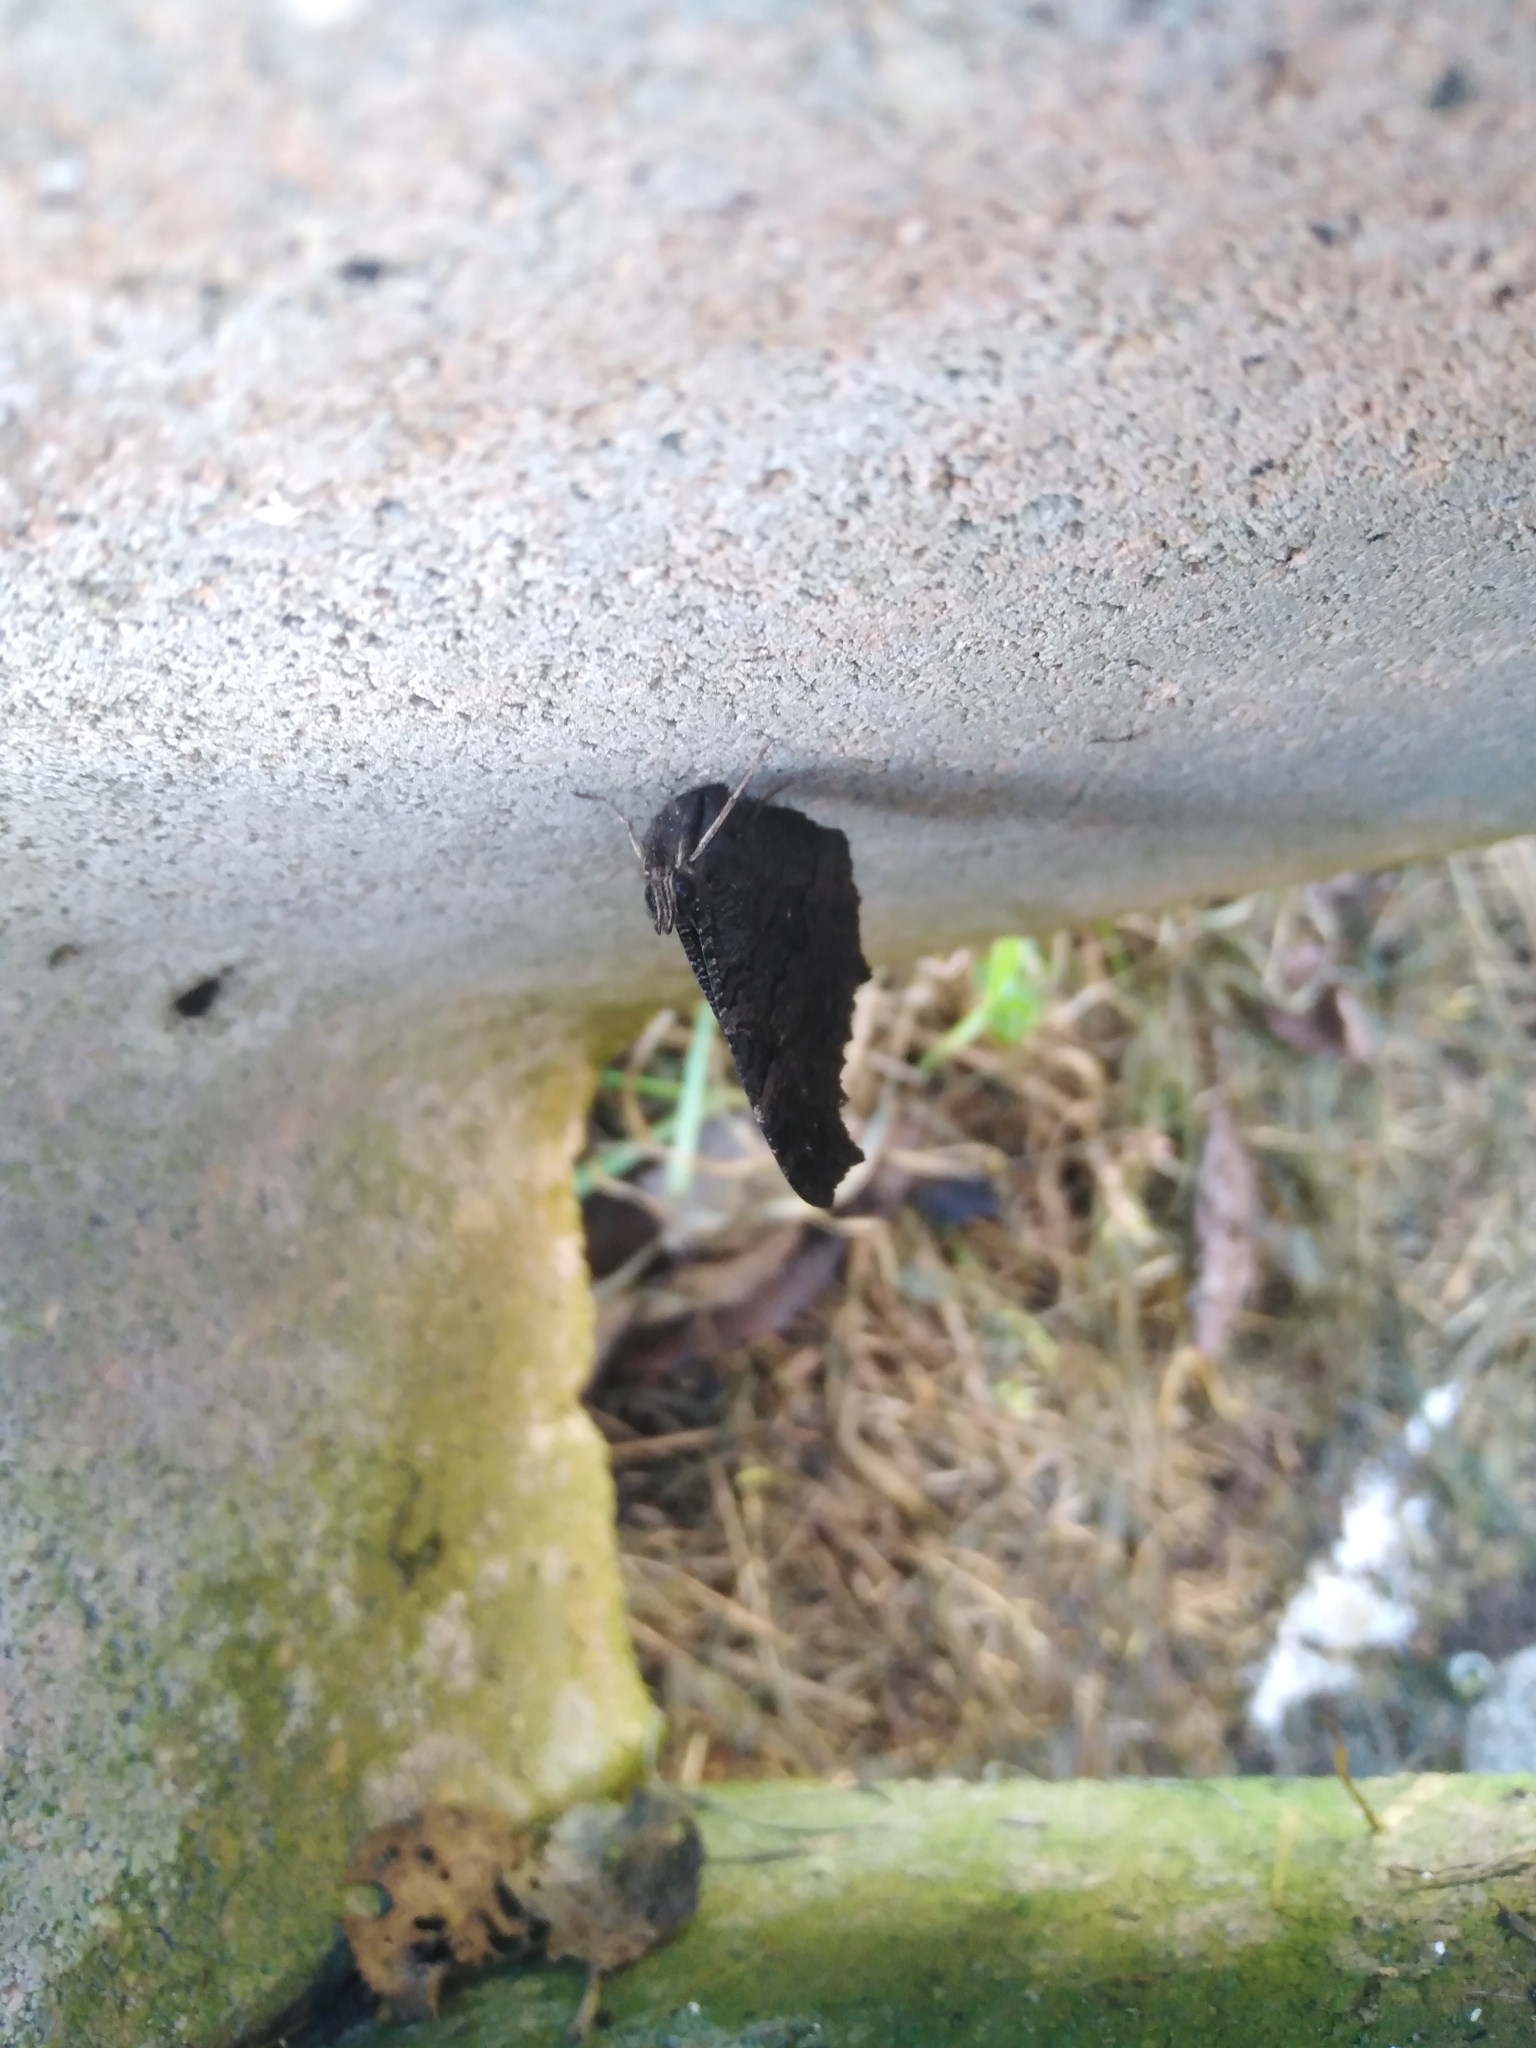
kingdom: Animalia
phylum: Arthropoda
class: Insecta
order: Lepidoptera
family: Nymphalidae
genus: Aglais
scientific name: Aglais io
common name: Peacock
